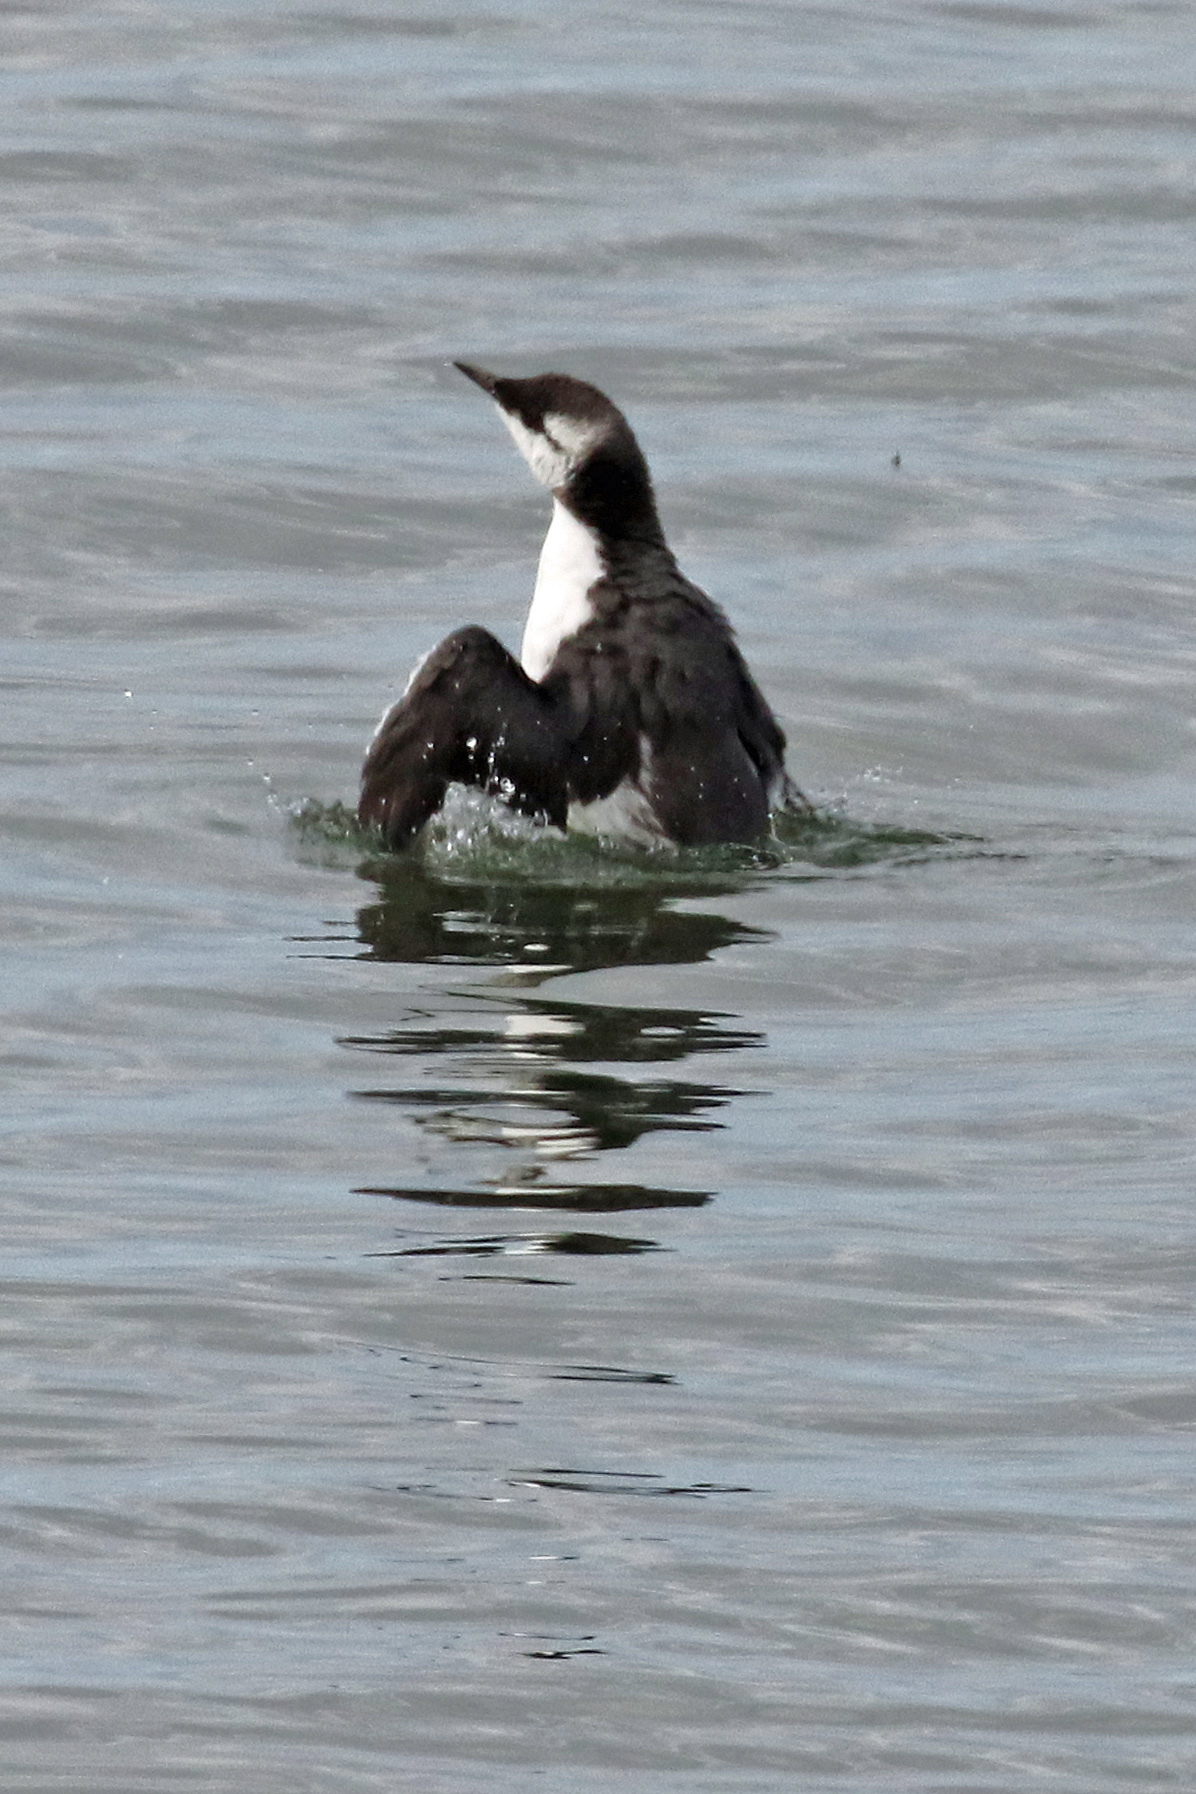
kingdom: Animalia
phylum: Chordata
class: Aves
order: Charadriiformes
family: Alcidae
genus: Uria
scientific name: Uria aalge
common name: Common murre
